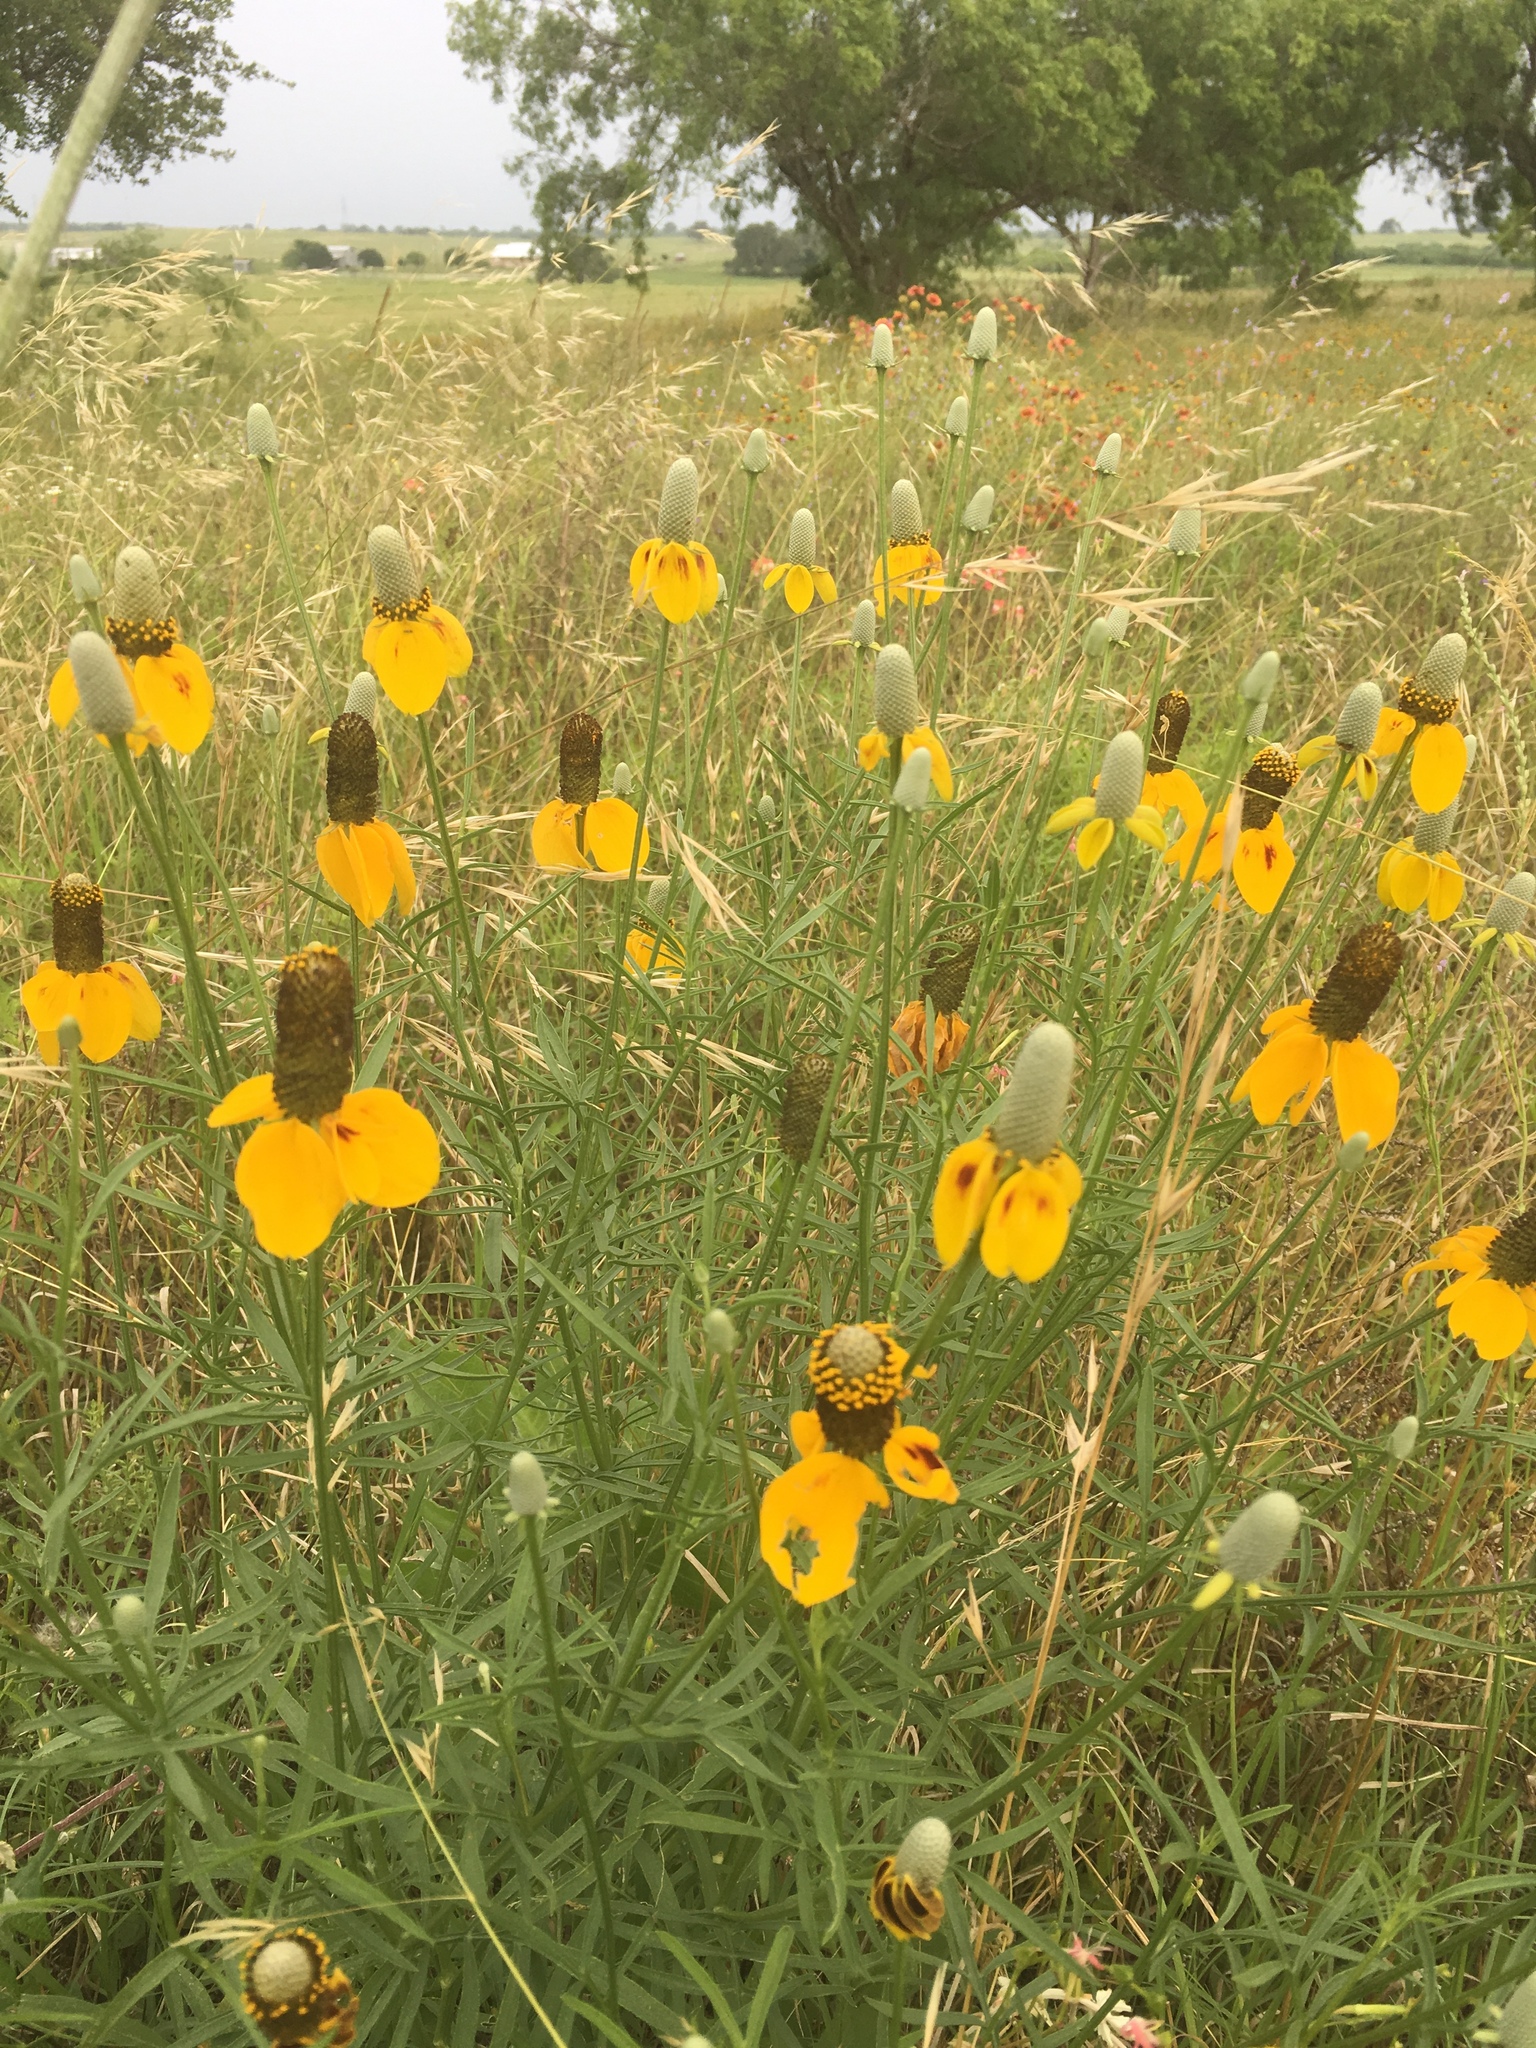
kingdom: Plantae
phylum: Tracheophyta
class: Magnoliopsida
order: Asterales
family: Asteraceae
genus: Ratibida
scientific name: Ratibida columnifera
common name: Prairie coneflower
